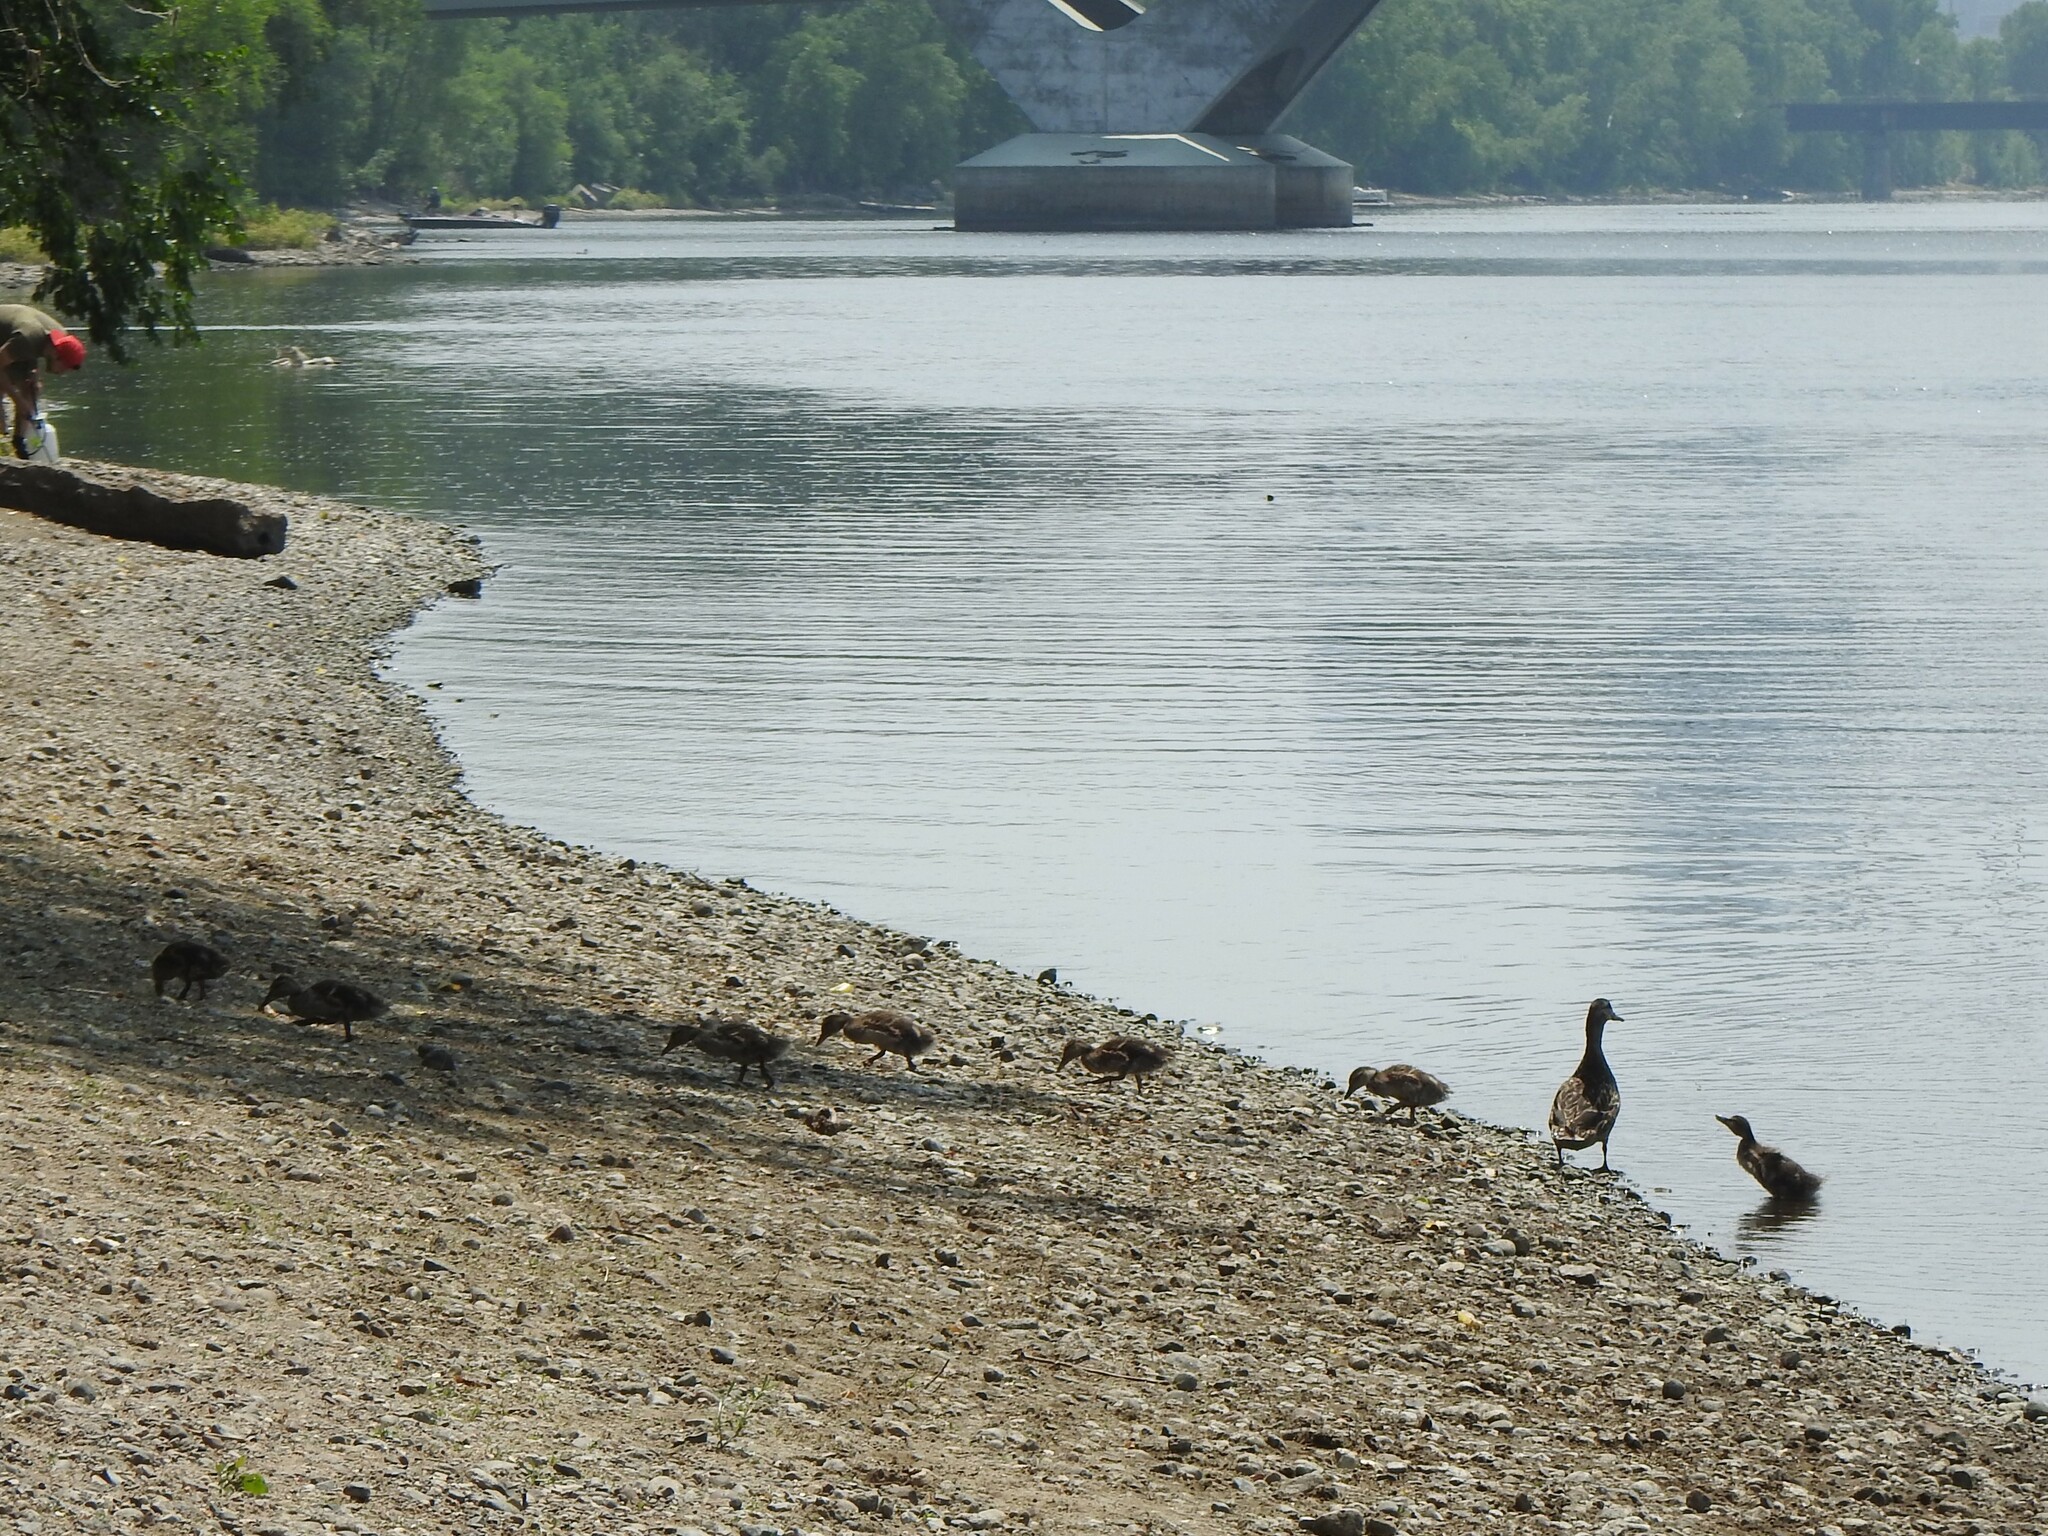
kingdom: Animalia
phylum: Chordata
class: Aves
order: Anseriformes
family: Anatidae
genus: Anas
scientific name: Anas platyrhynchos
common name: Mallard
